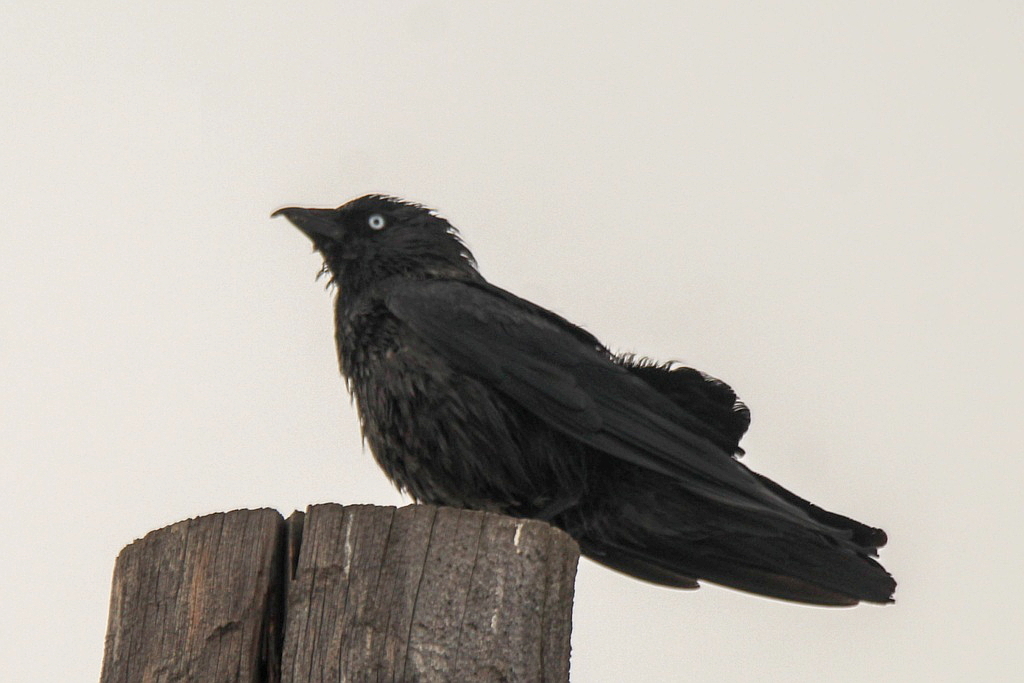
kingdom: Animalia
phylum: Chordata
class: Aves
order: Passeriformes
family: Corvidae
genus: Coloeus
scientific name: Coloeus monedula
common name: Western jackdaw
